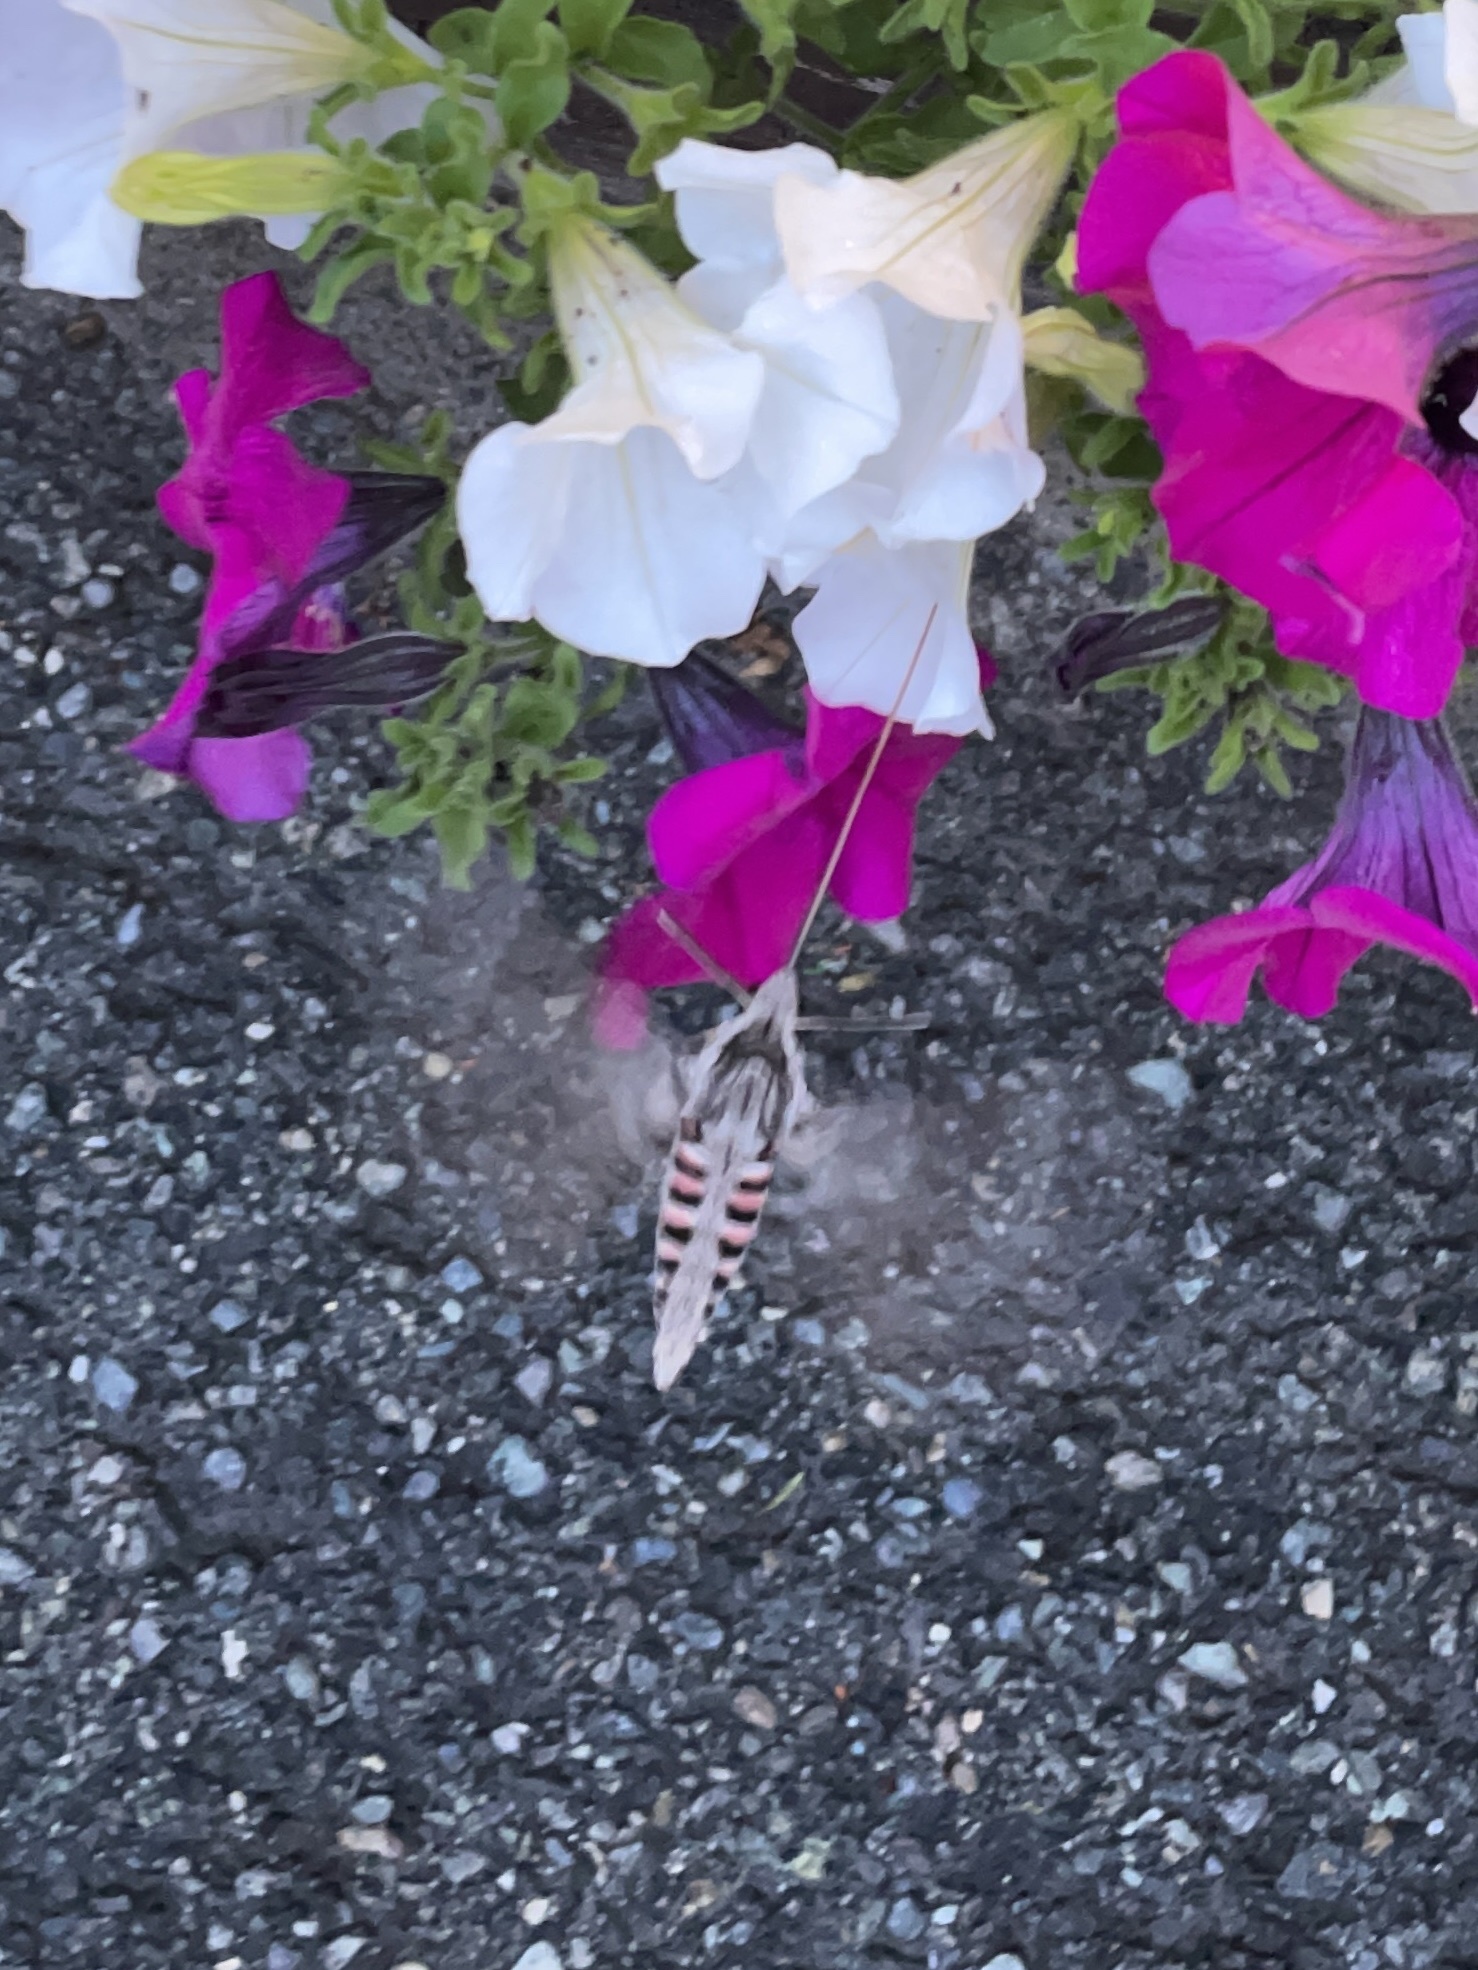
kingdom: Animalia
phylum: Arthropoda
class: Insecta
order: Lepidoptera
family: Sphingidae
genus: Agrius
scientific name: Agrius convolvuli
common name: Convolvulus hawkmoth
